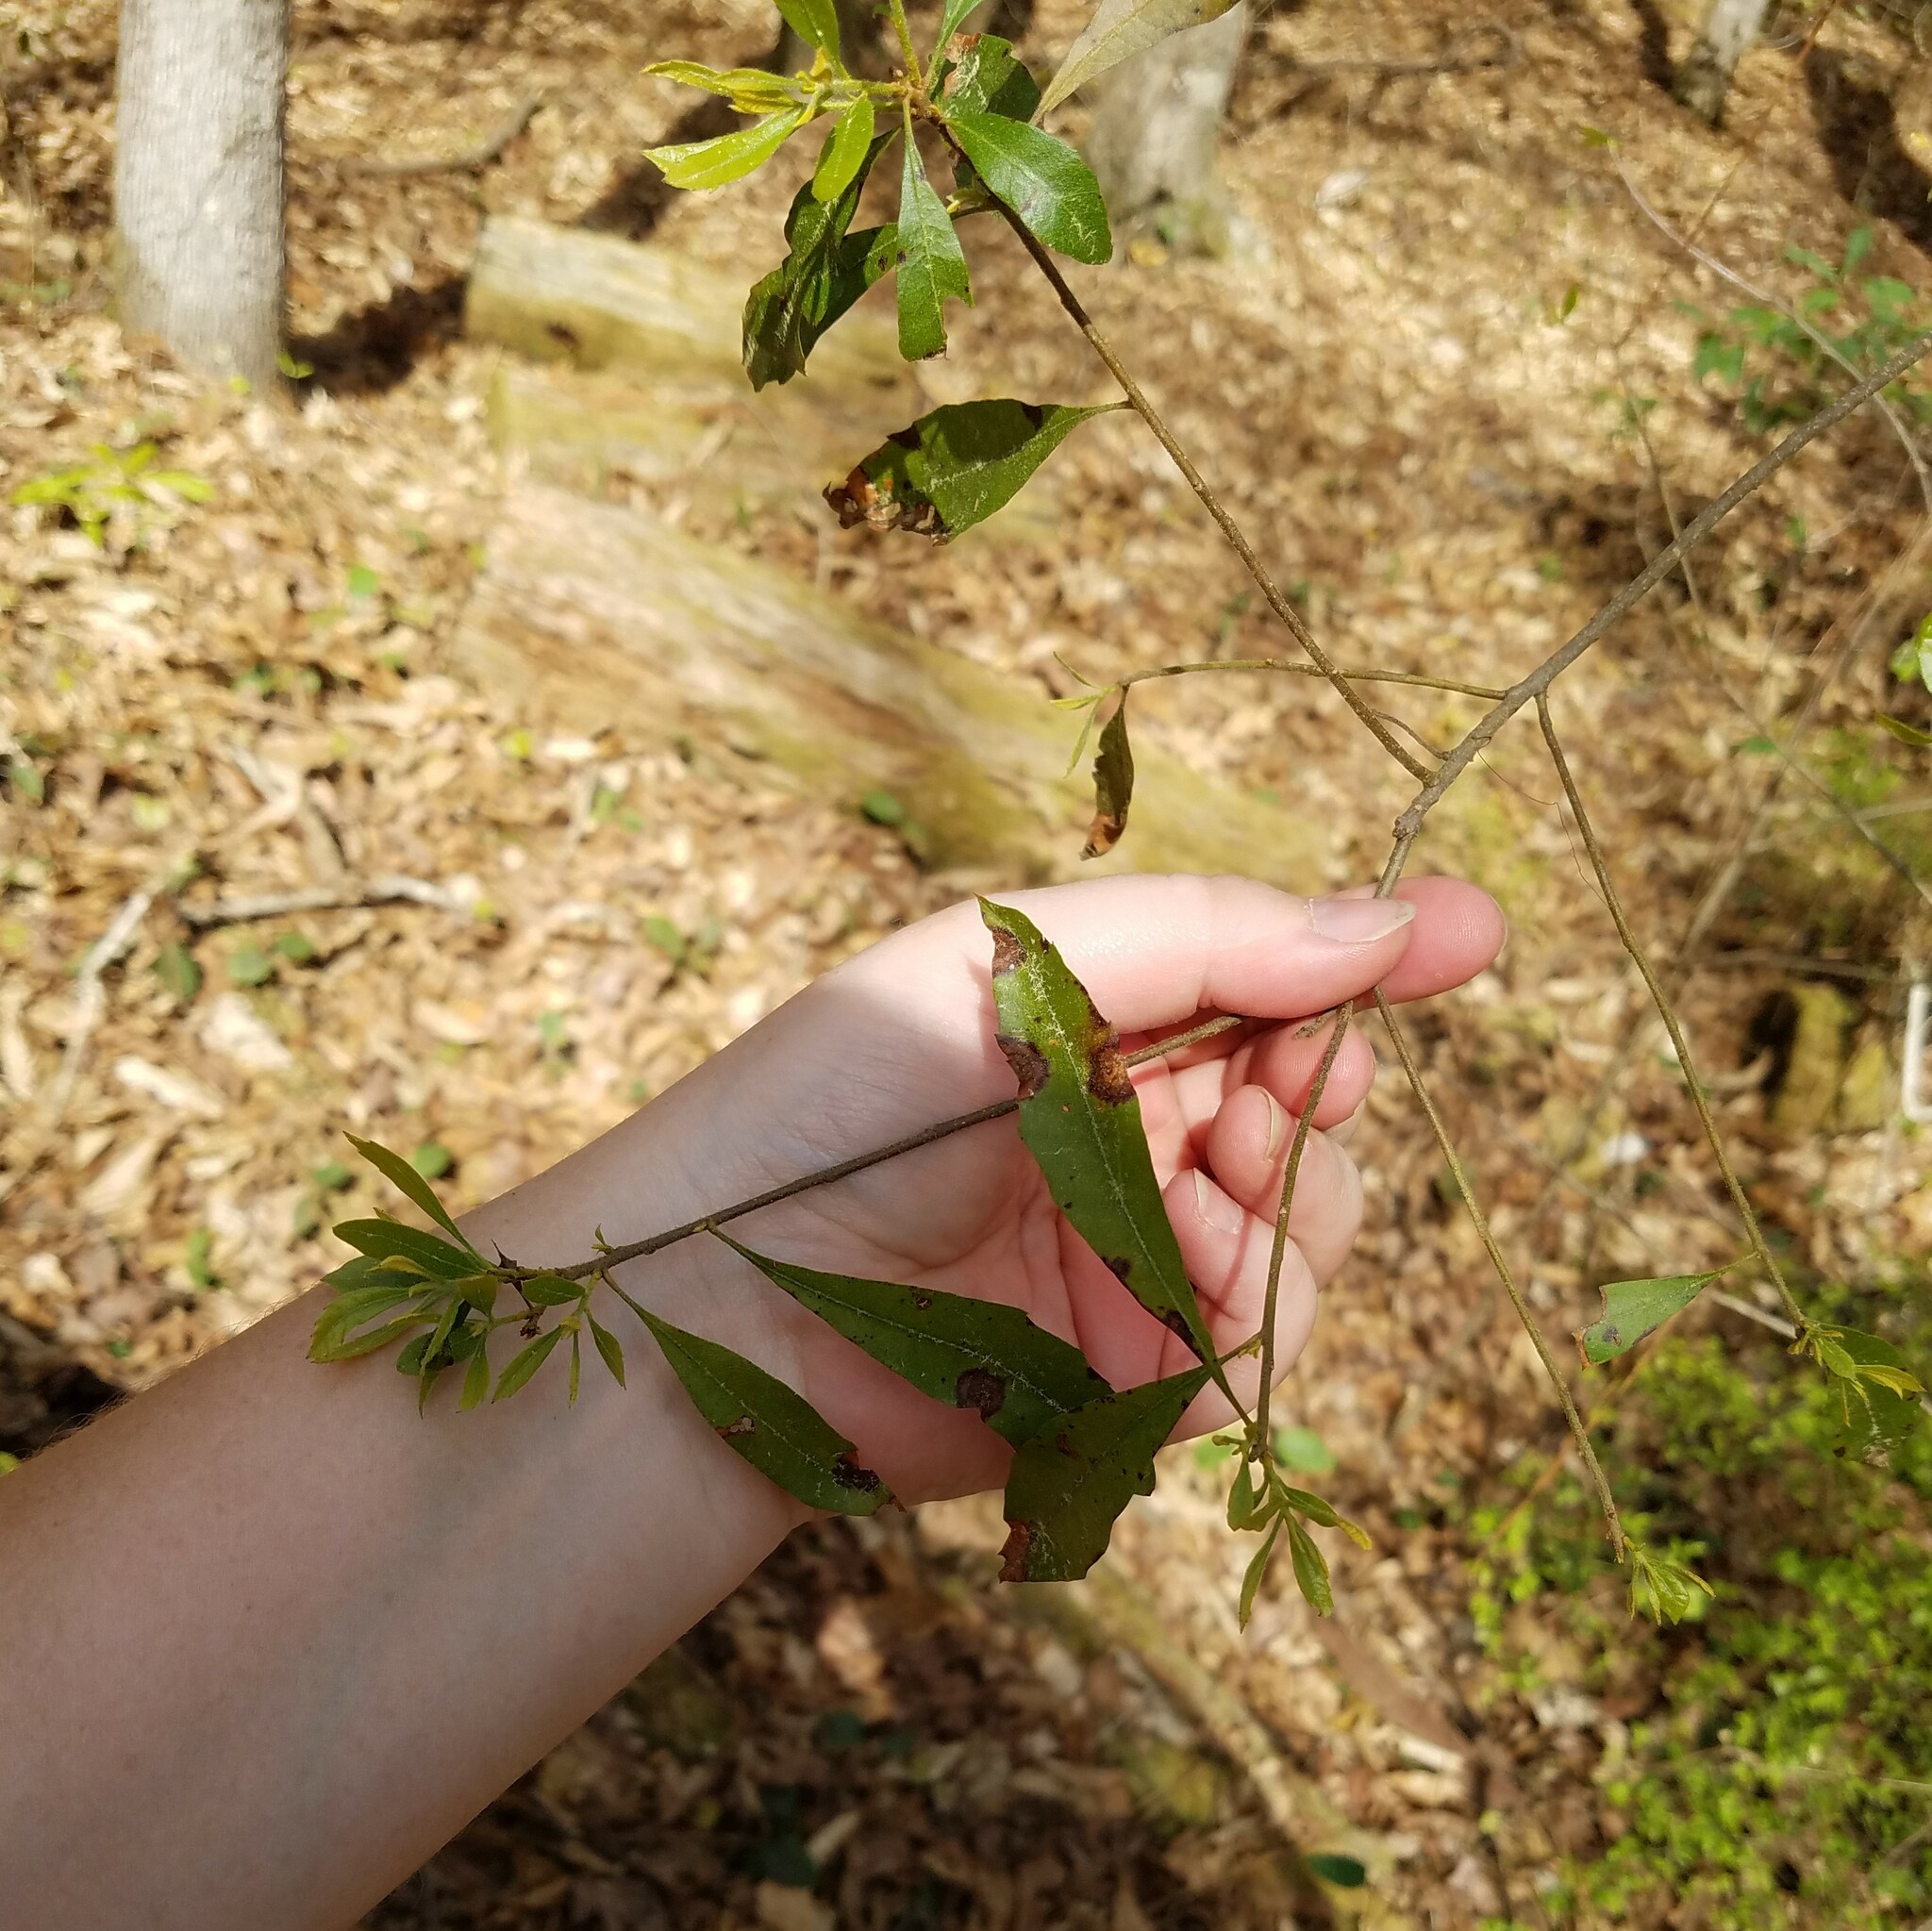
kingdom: Plantae
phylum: Tracheophyta
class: Magnoliopsida
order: Fagales
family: Myricaceae
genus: Morella
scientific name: Morella cerifera
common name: Wax myrtle
